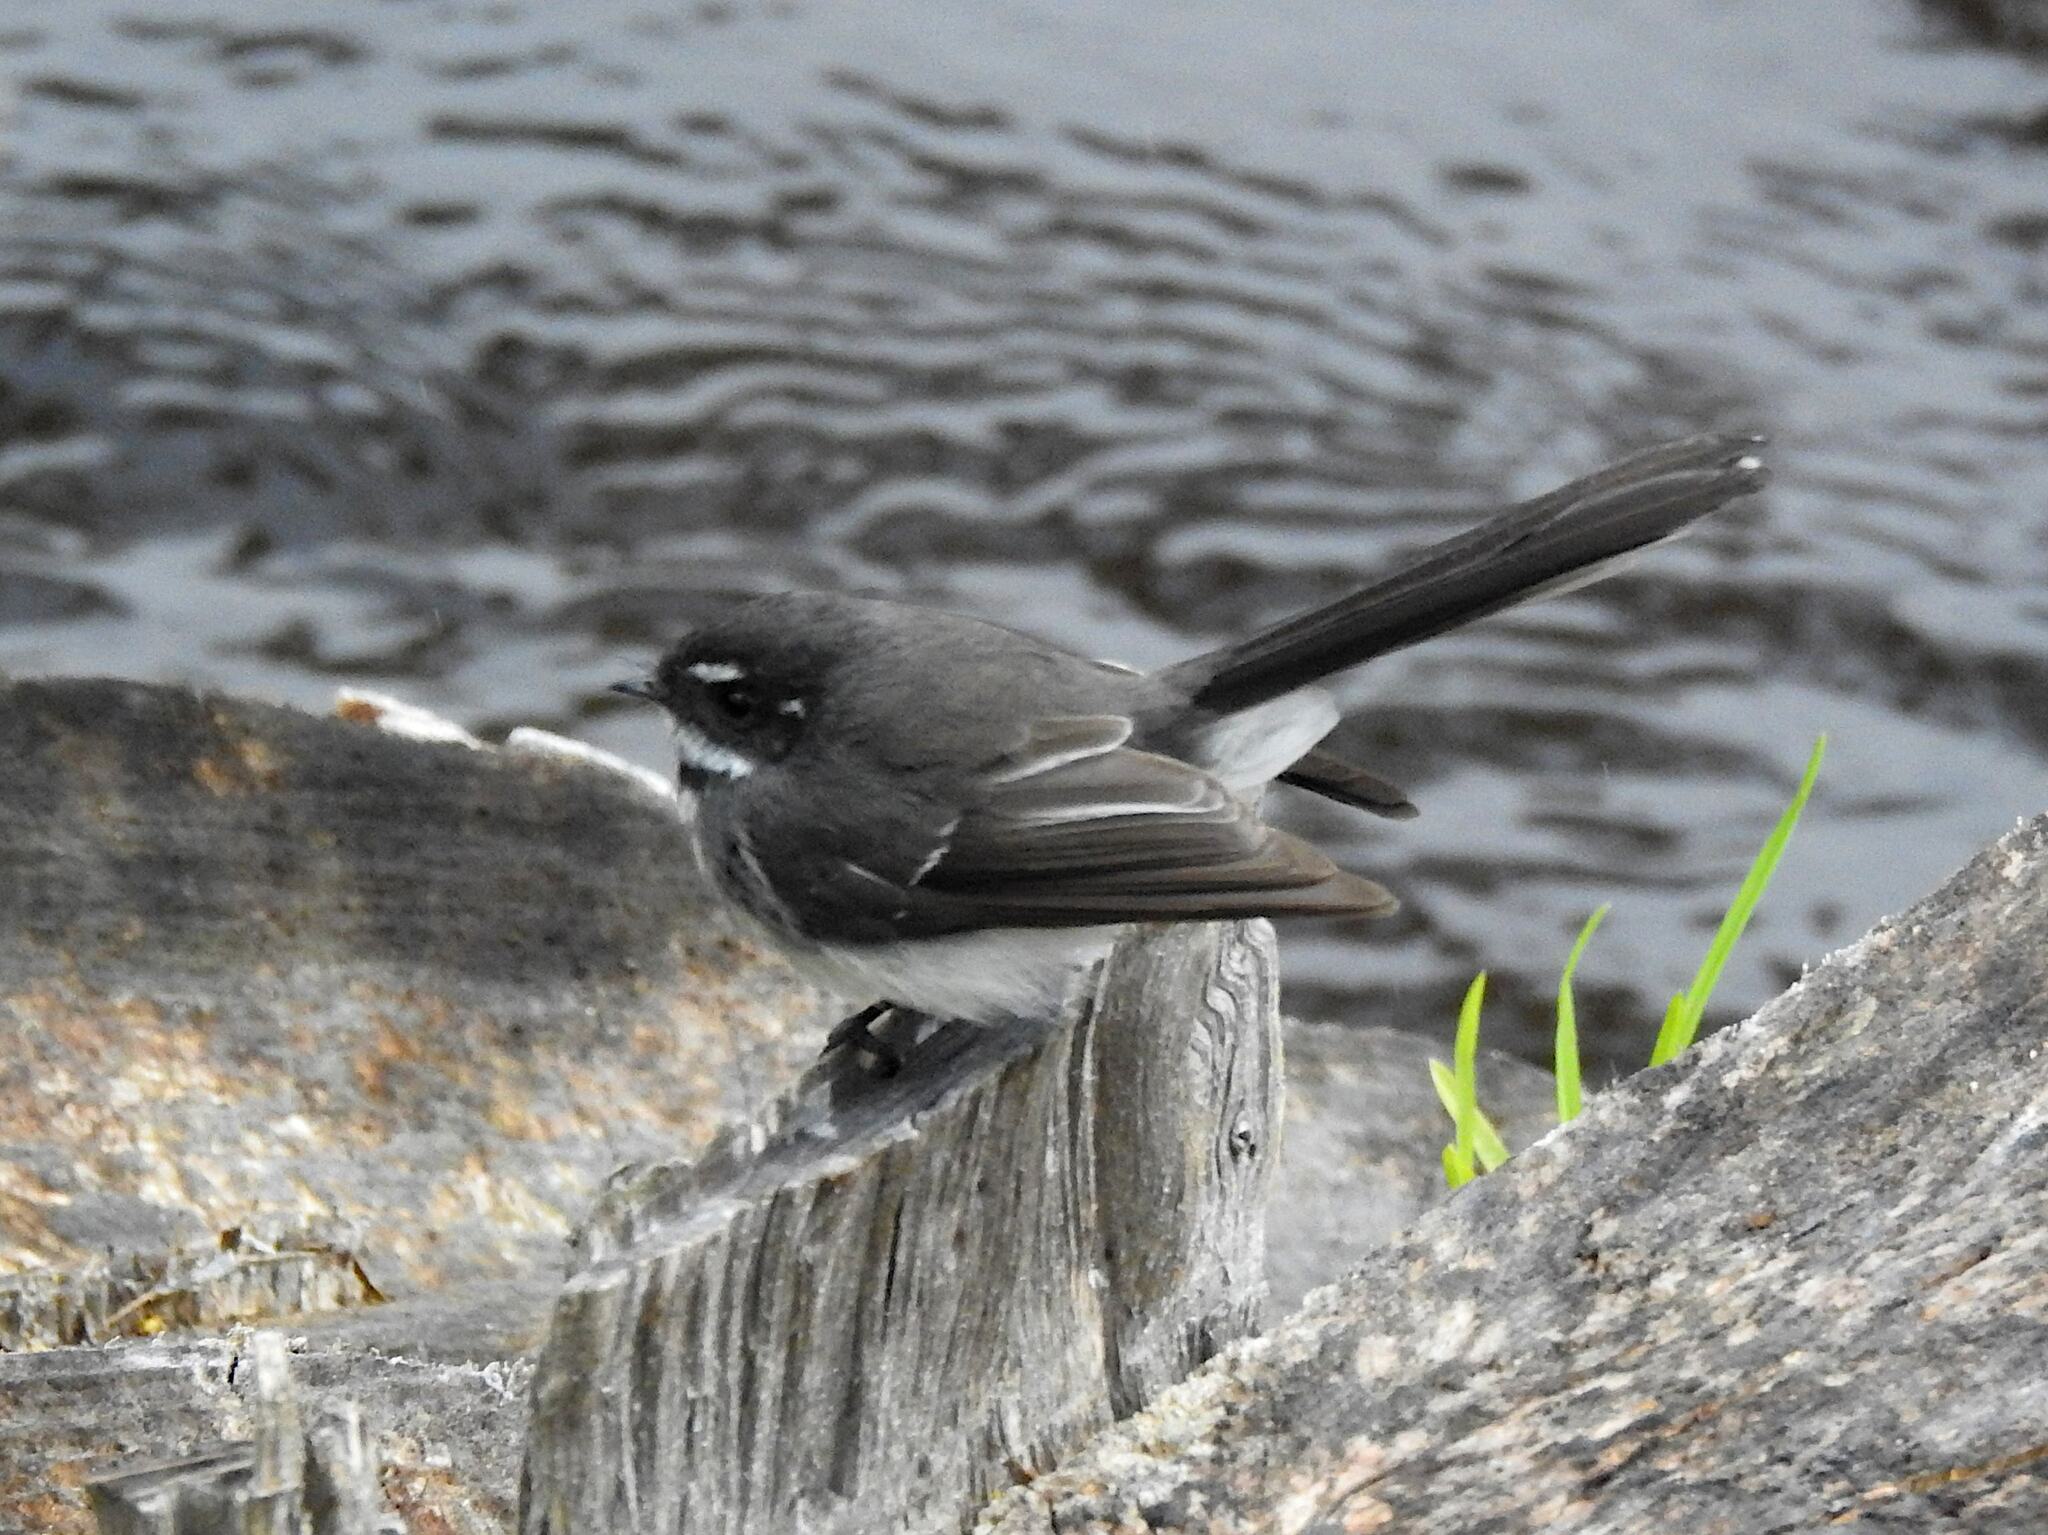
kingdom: Animalia
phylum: Chordata
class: Aves
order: Passeriformes
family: Rhipiduridae
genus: Rhipidura
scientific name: Rhipidura albiscapa
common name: Grey fantail
